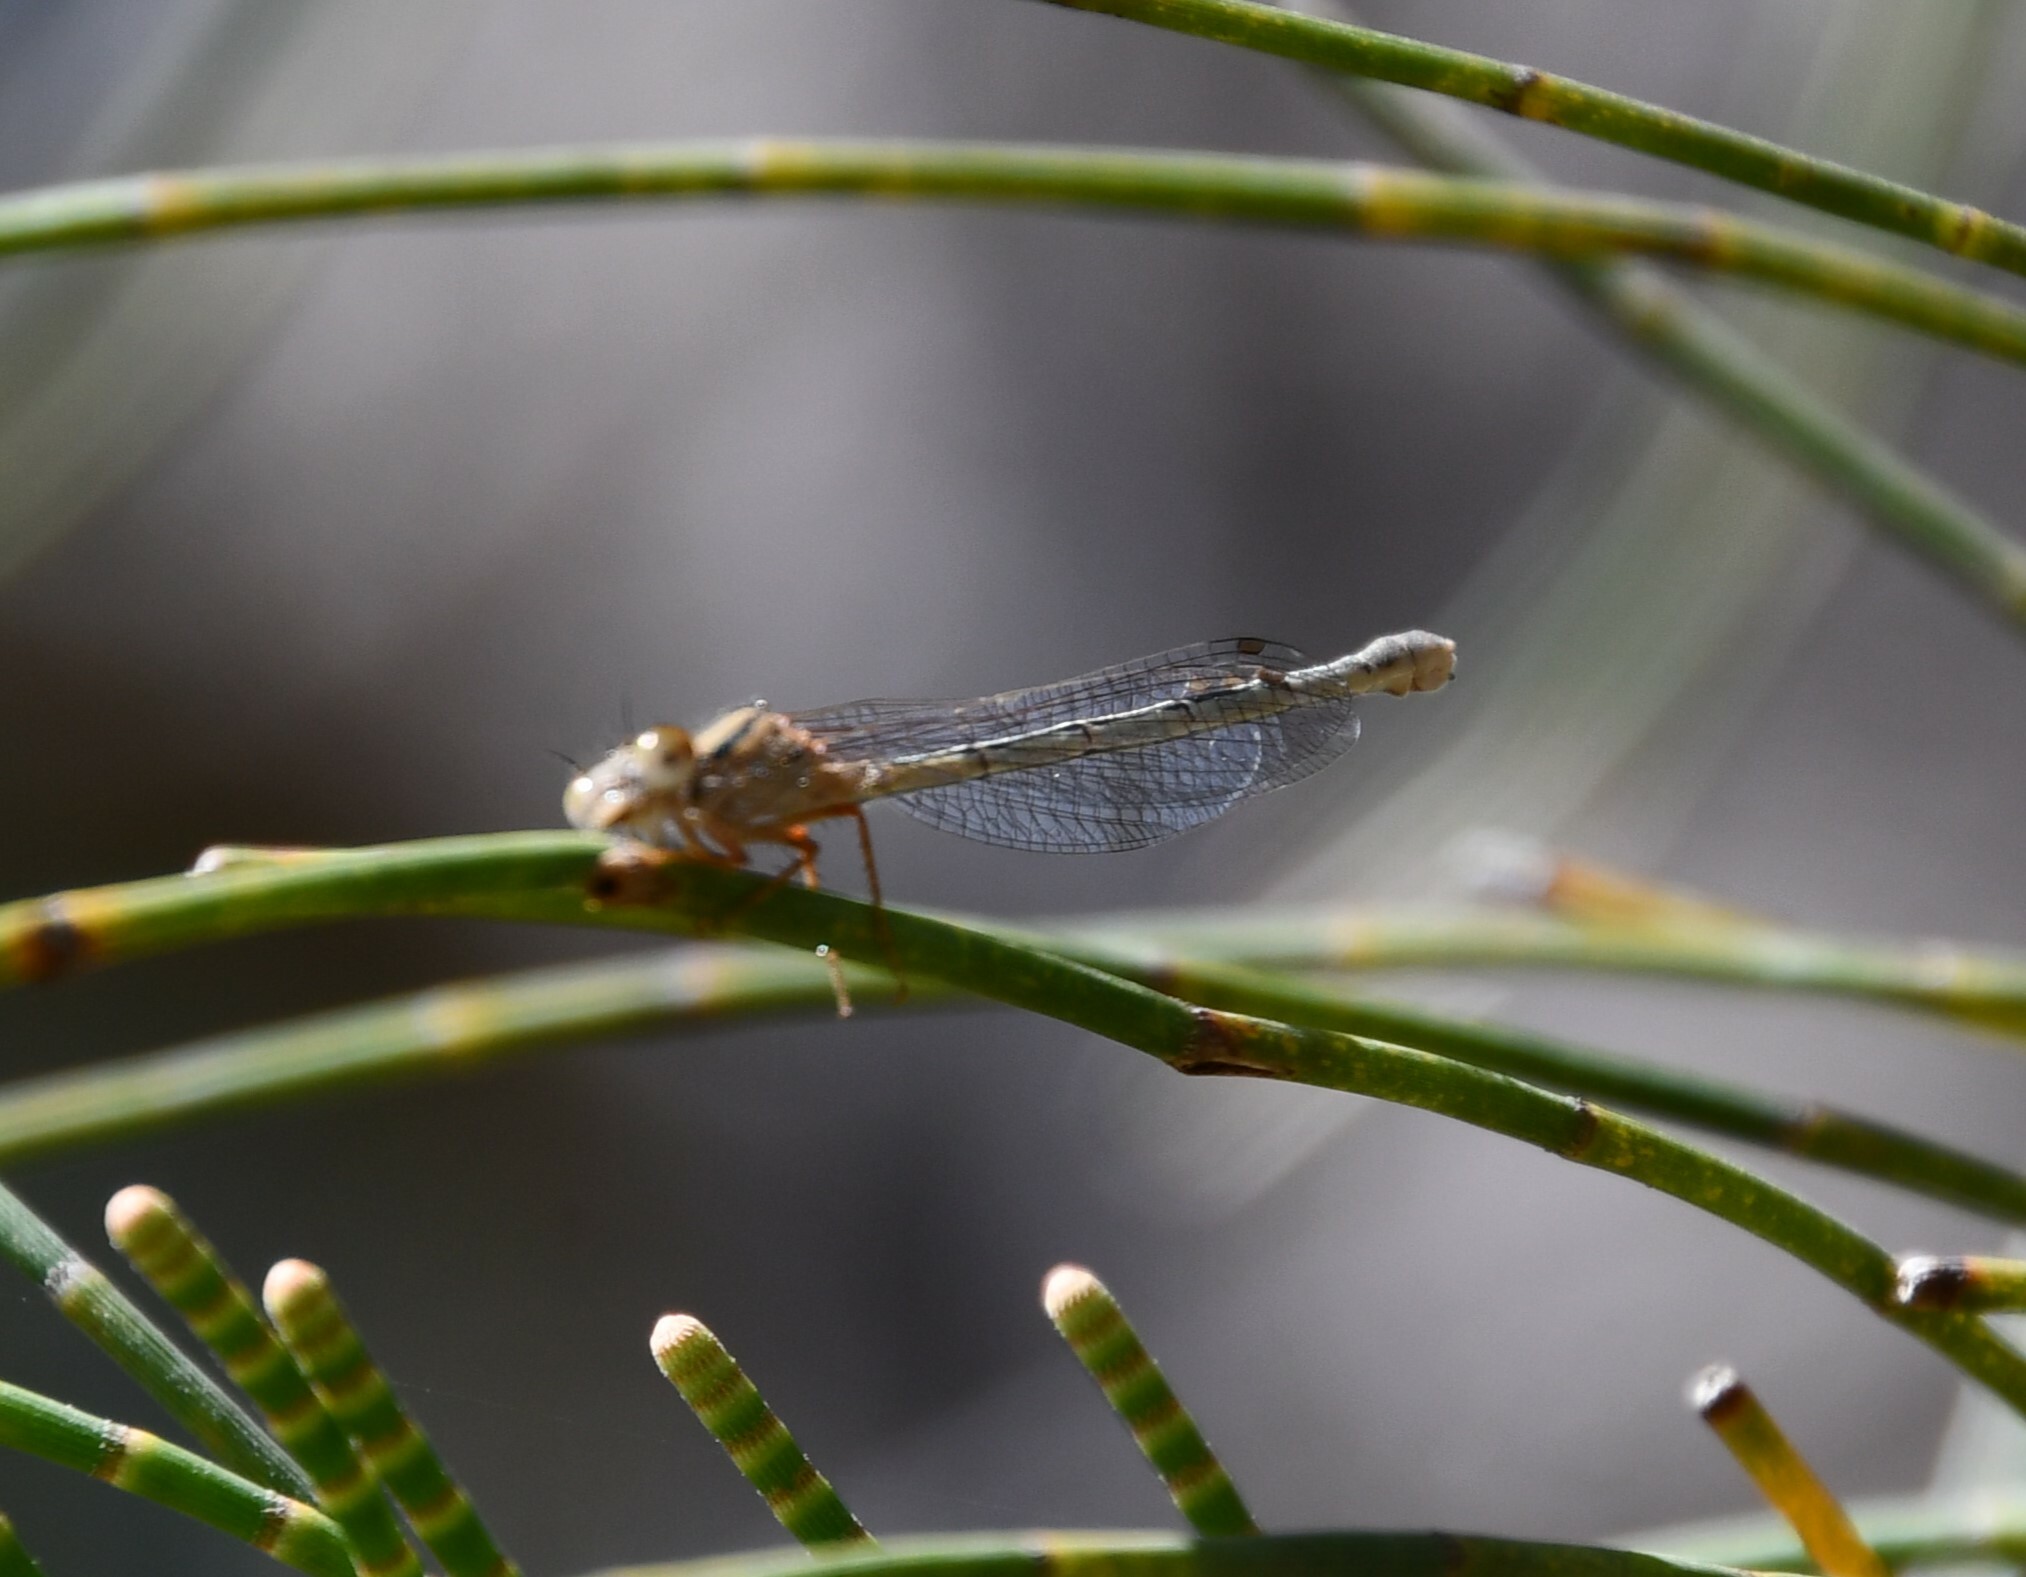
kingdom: Animalia
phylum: Arthropoda
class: Insecta
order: Odonata
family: Coenagrionidae
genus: Xanthagrion
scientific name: Xanthagrion erythroneurum
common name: Red and blue damsel
